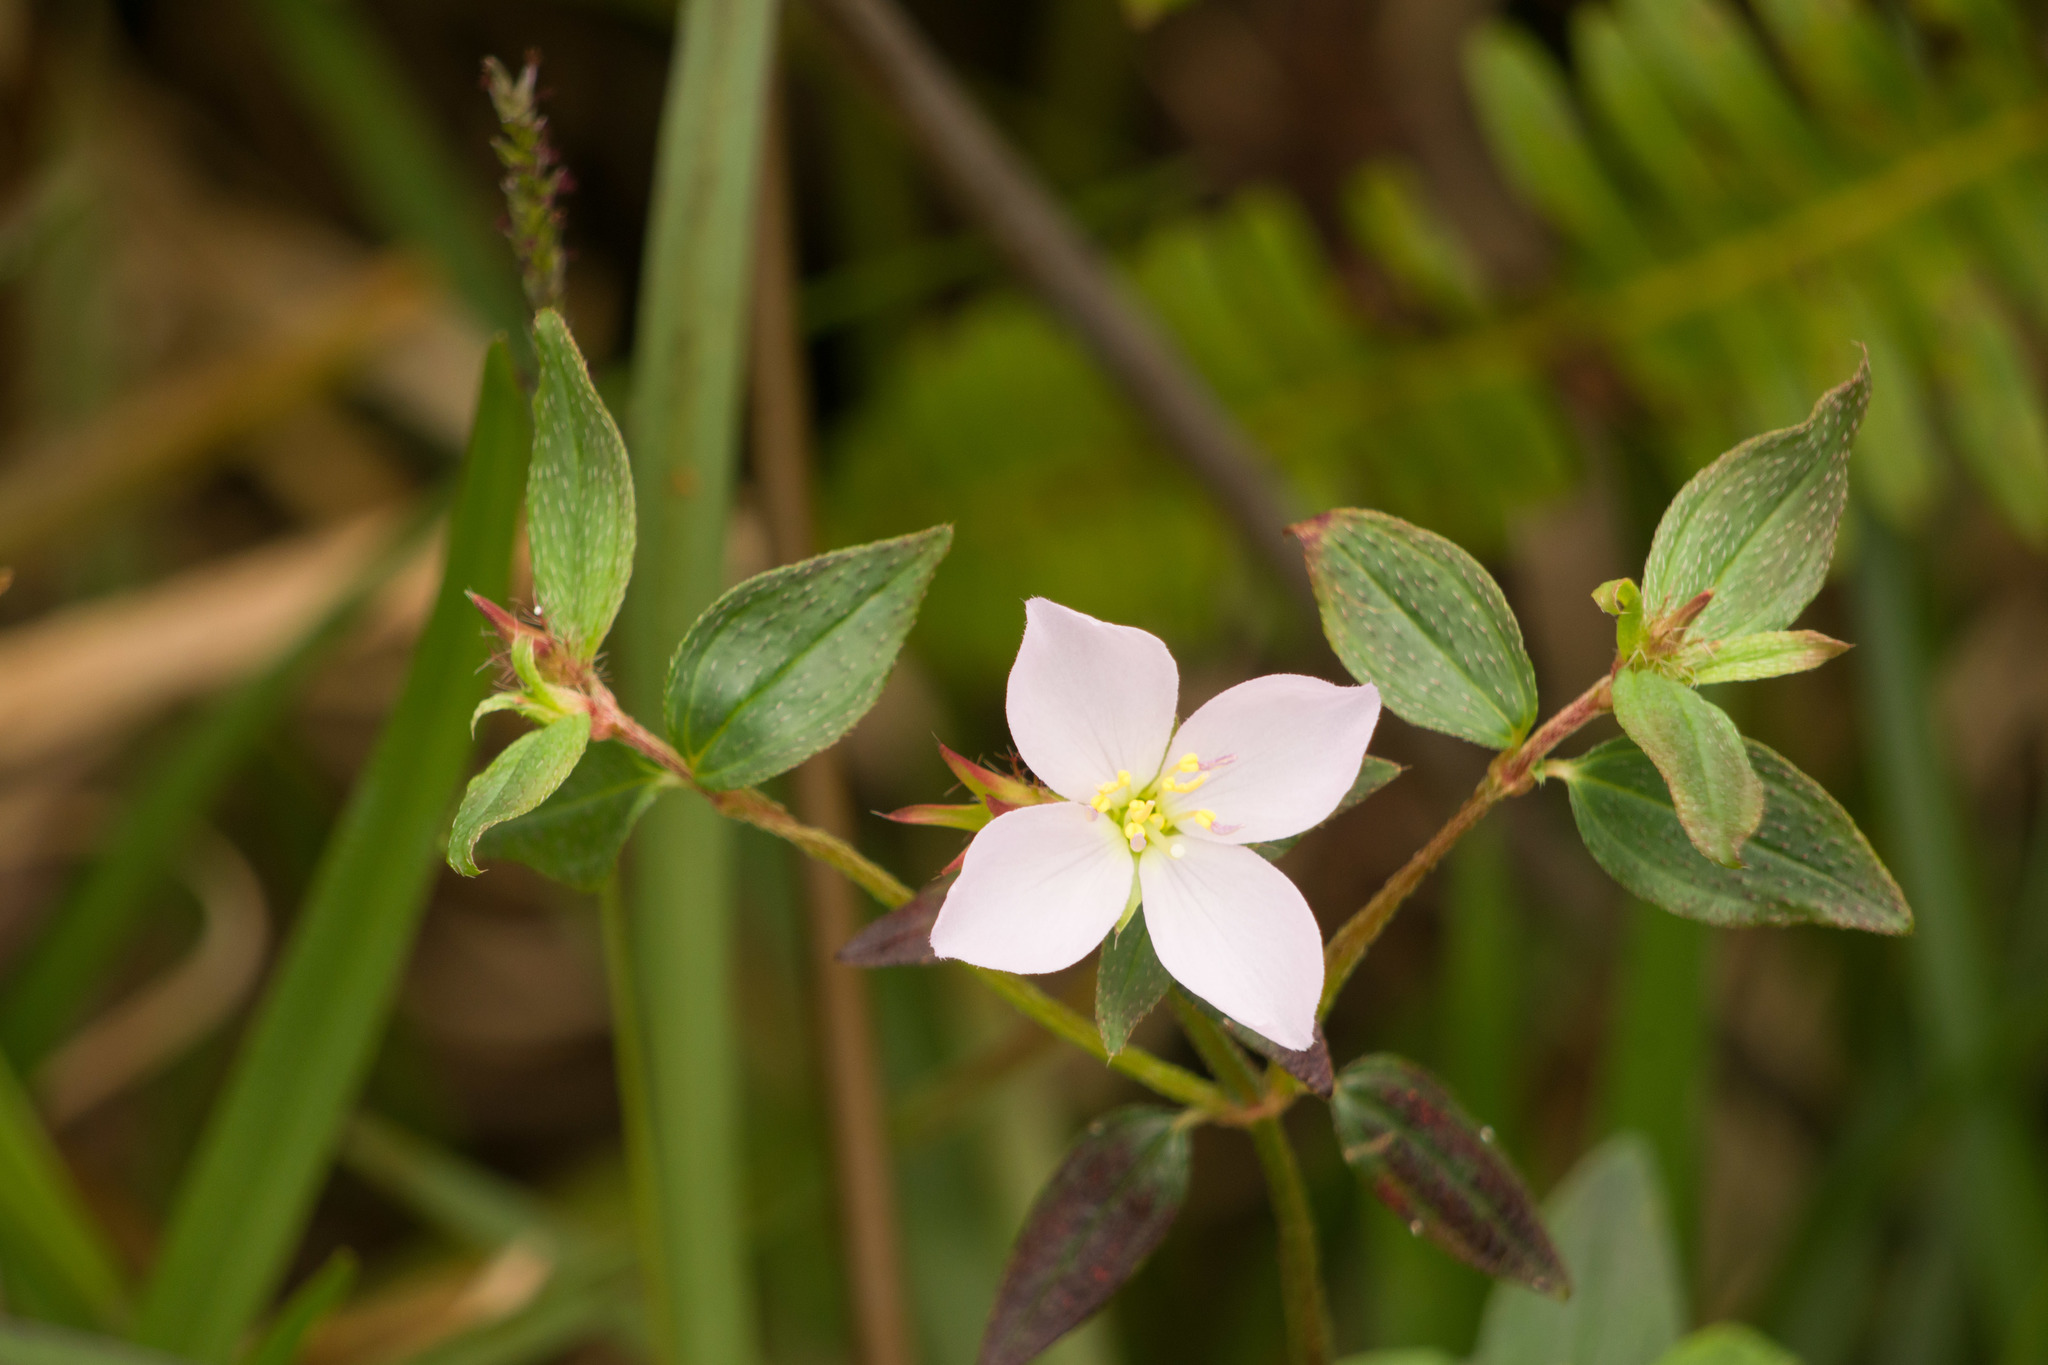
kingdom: Plantae
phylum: Tracheophyta
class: Magnoliopsida
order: Myrtales
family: Melastomataceae
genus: Pterolepis
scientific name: Pterolepis glomerata
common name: False meadowbeauty
